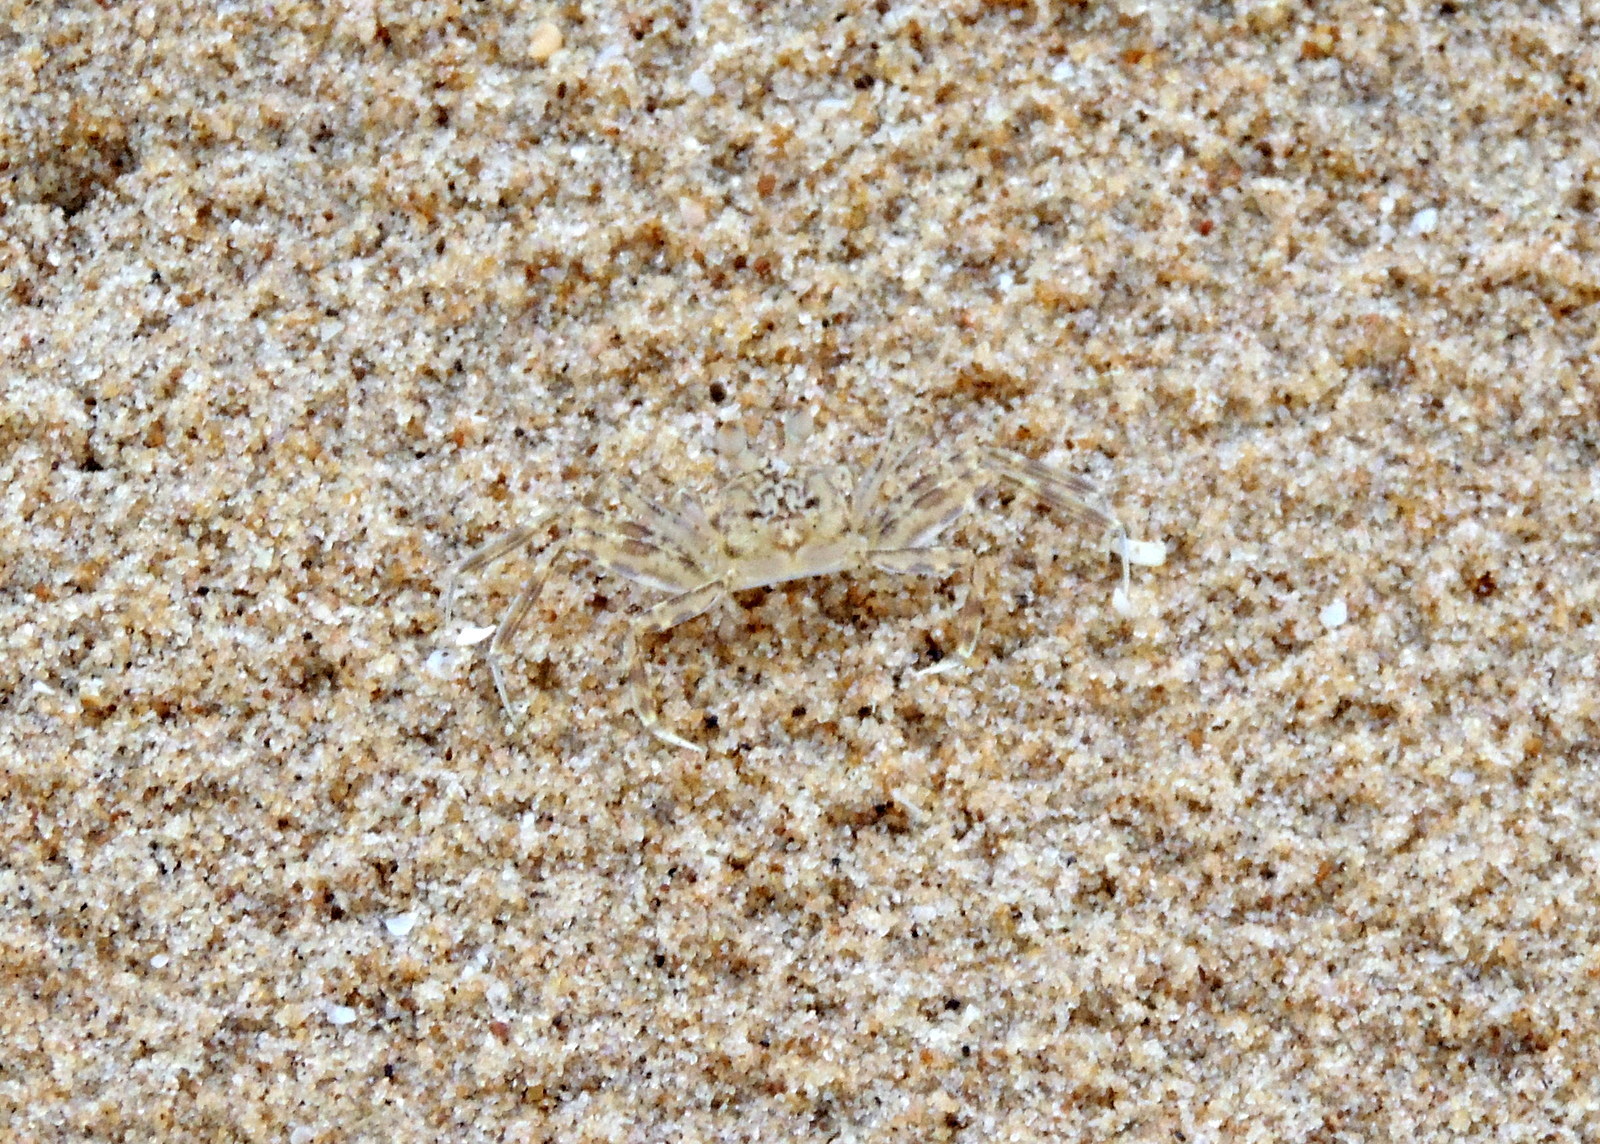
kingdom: Animalia
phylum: Arthropoda
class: Malacostraca
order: Decapoda
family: Ocypodidae
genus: Ocypode
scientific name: Ocypode cursor
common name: Tufted ghost crab
